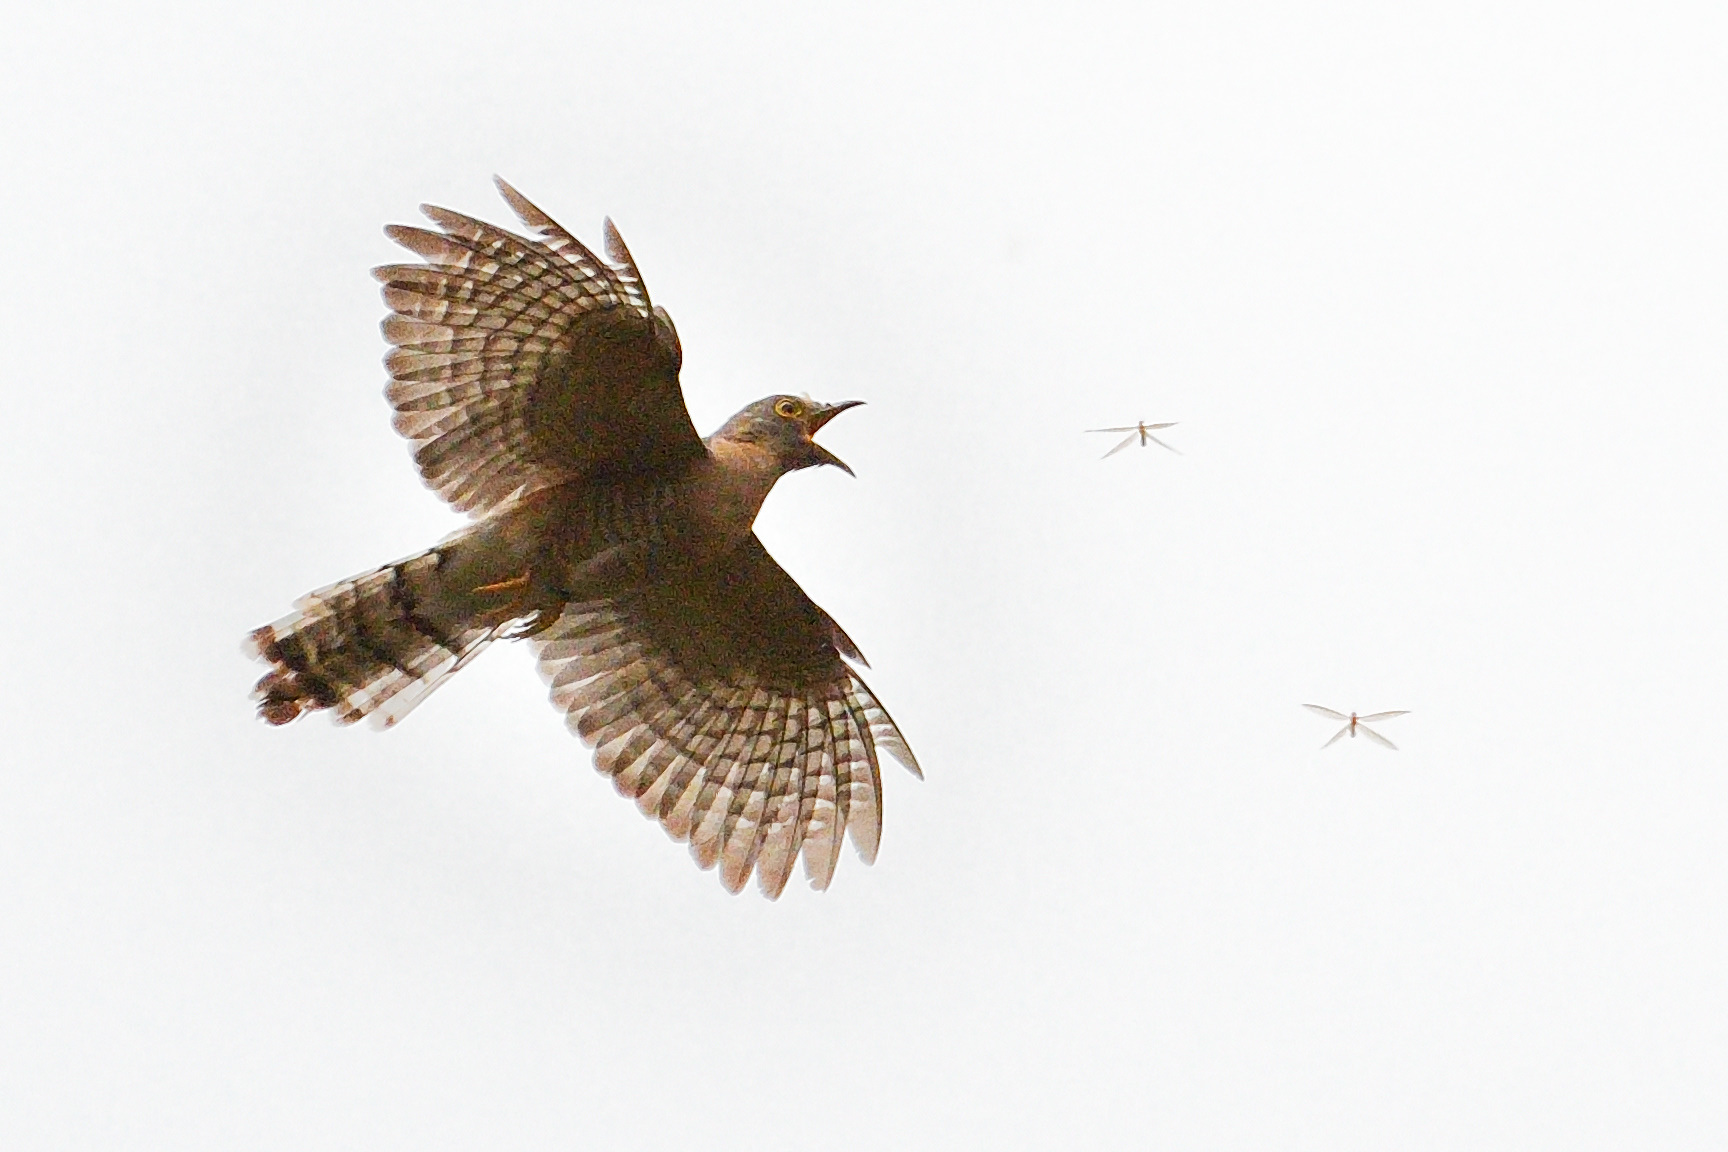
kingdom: Animalia
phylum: Chordata
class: Aves
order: Cuculiformes
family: Cuculidae
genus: Cuculus
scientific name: Cuculus varius
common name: Common hawk cuckoo
